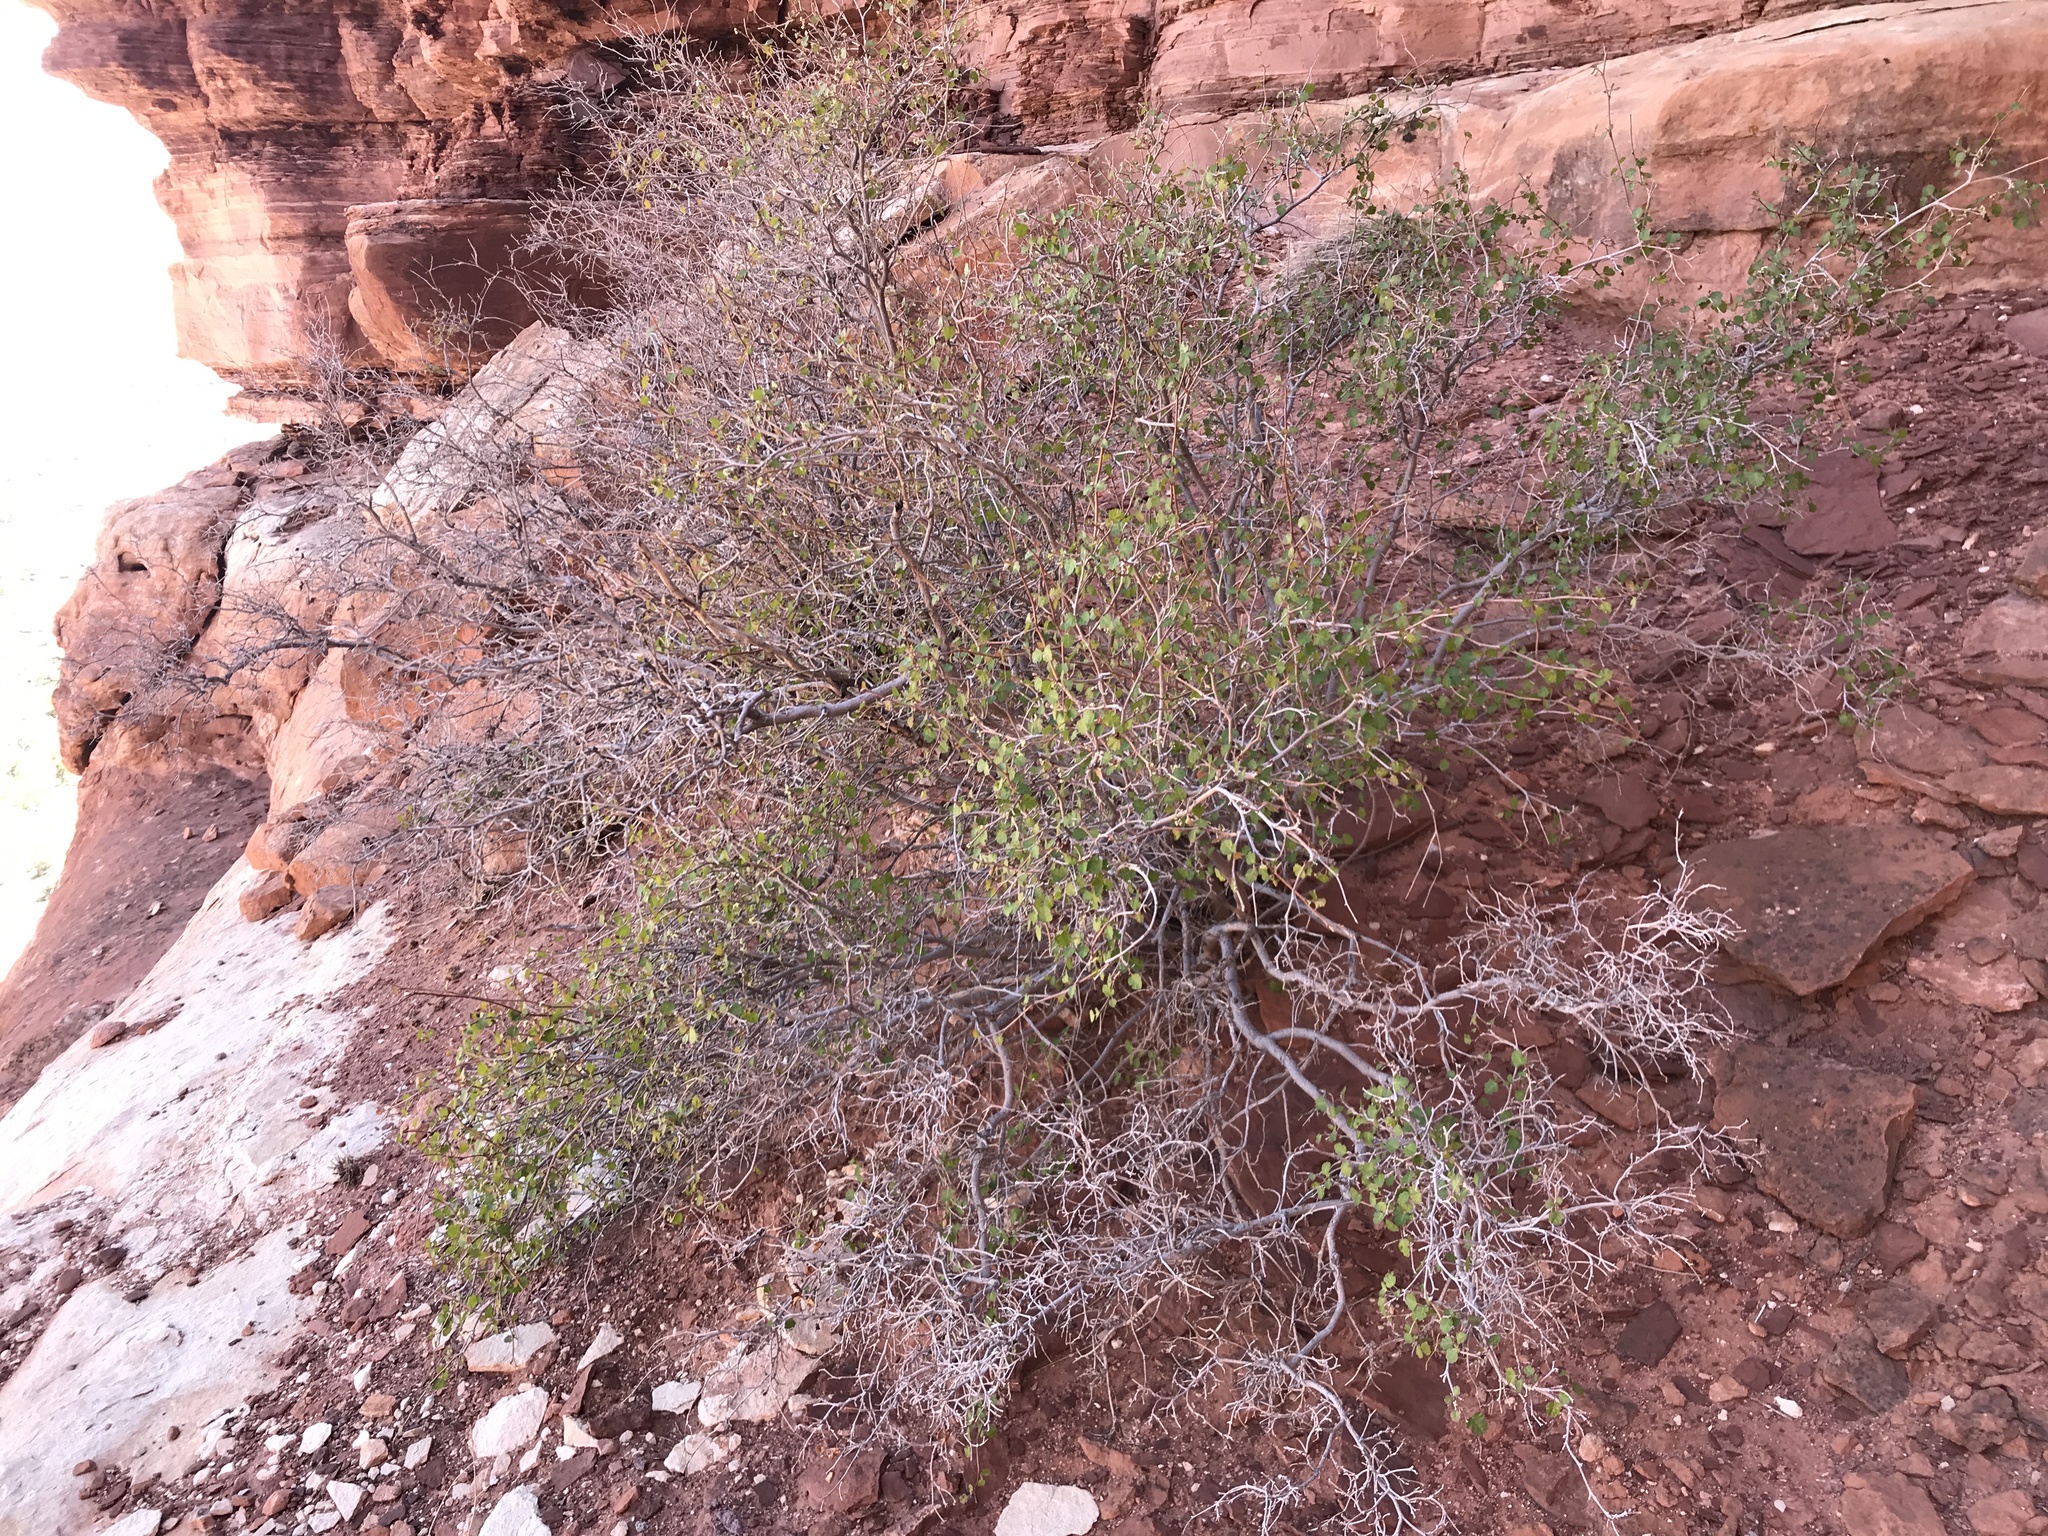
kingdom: Plantae
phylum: Tracheophyta
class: Magnoliopsida
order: Sapindales
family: Anacardiaceae
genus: Rhus
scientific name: Rhus aromatica
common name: Aromatic sumac
